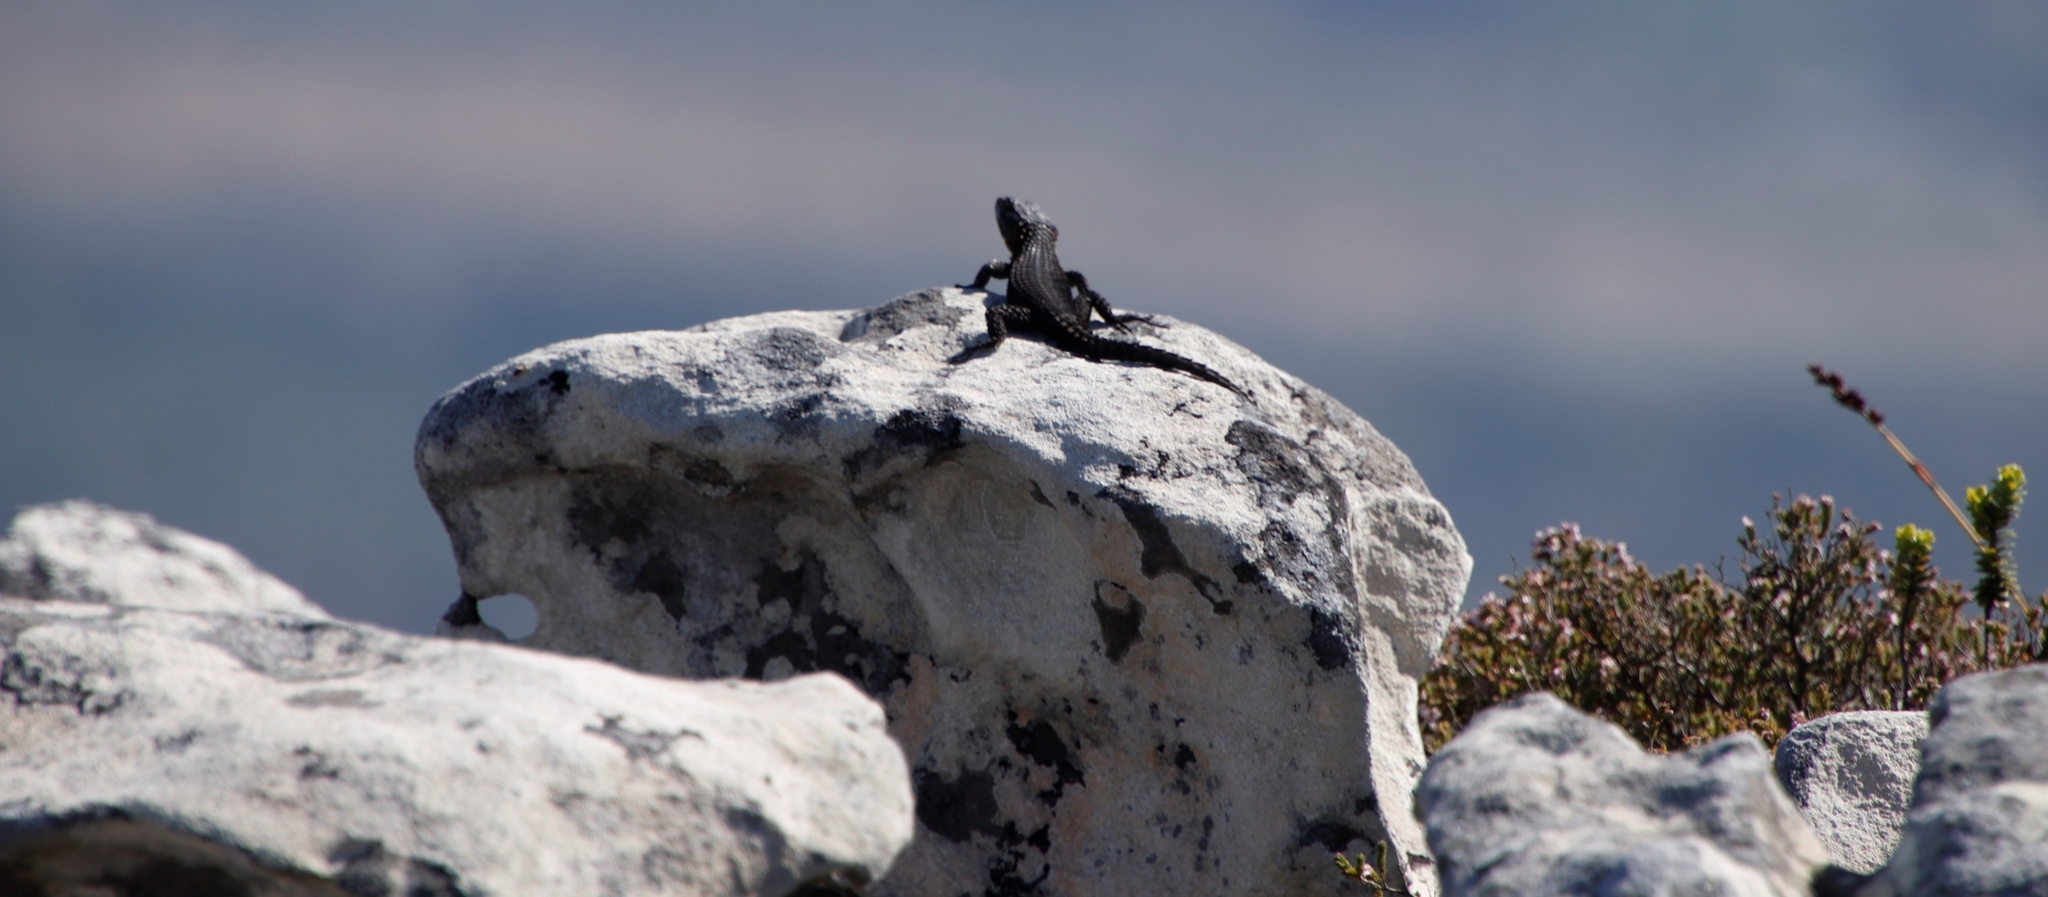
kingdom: Animalia
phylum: Chordata
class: Squamata
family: Cordylidae
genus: Cordylus
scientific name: Cordylus niger
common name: Black girdled lizard
